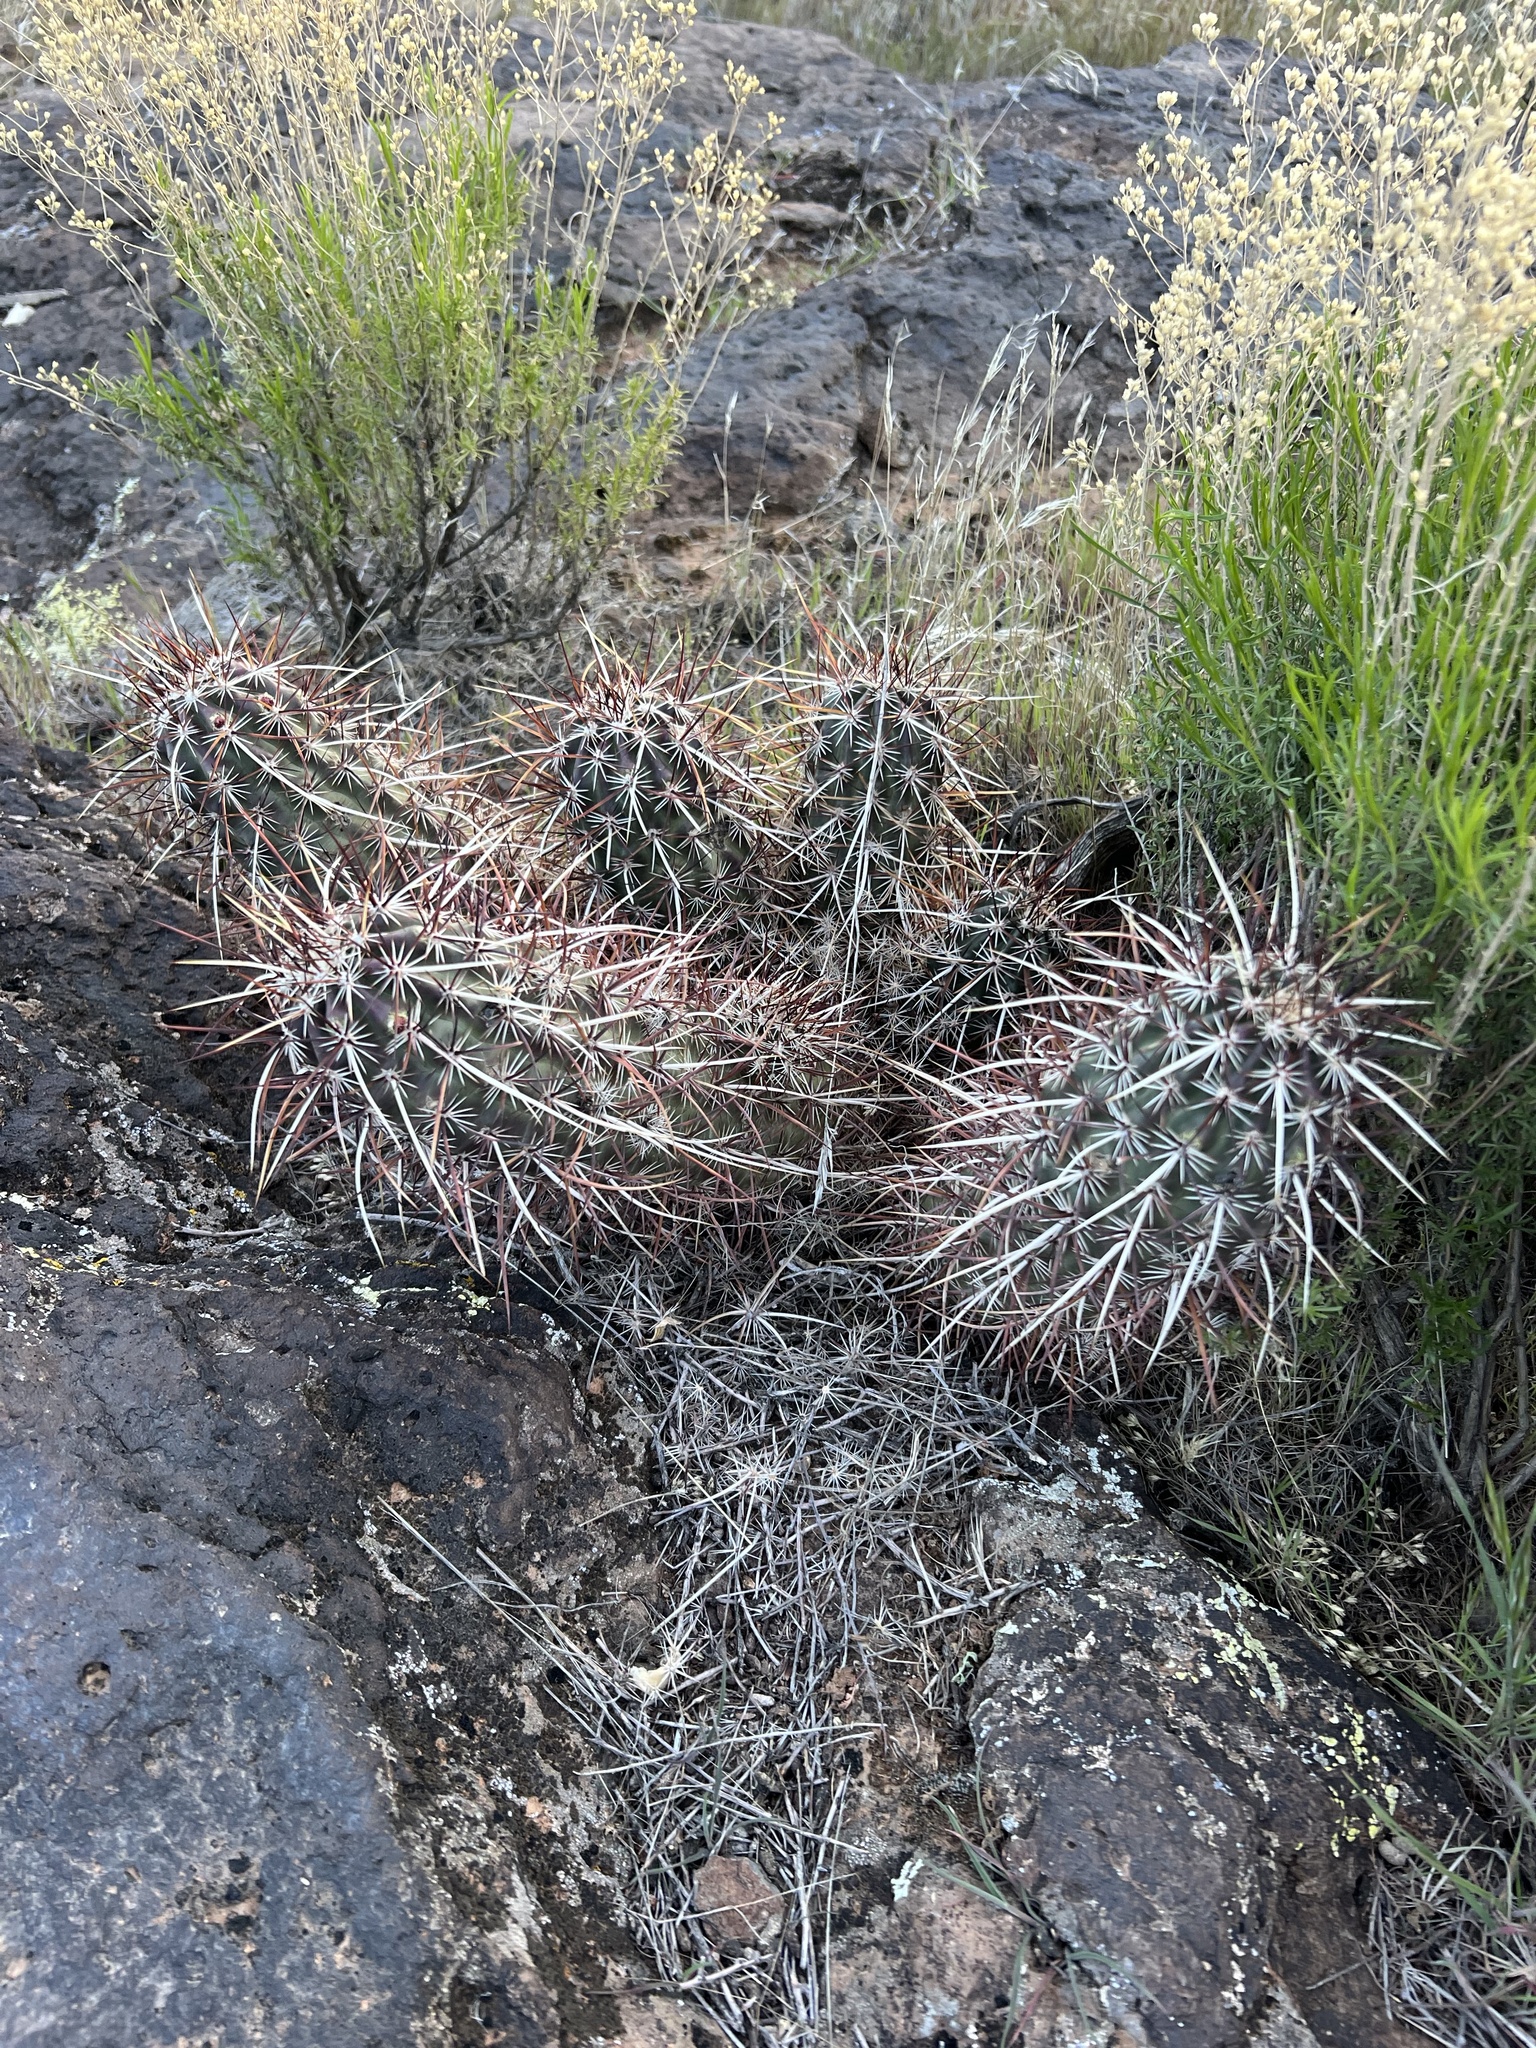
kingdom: Plantae
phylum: Tracheophyta
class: Magnoliopsida
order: Caryophyllales
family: Cactaceae
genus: Echinocereus
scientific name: Echinocereus relictus
